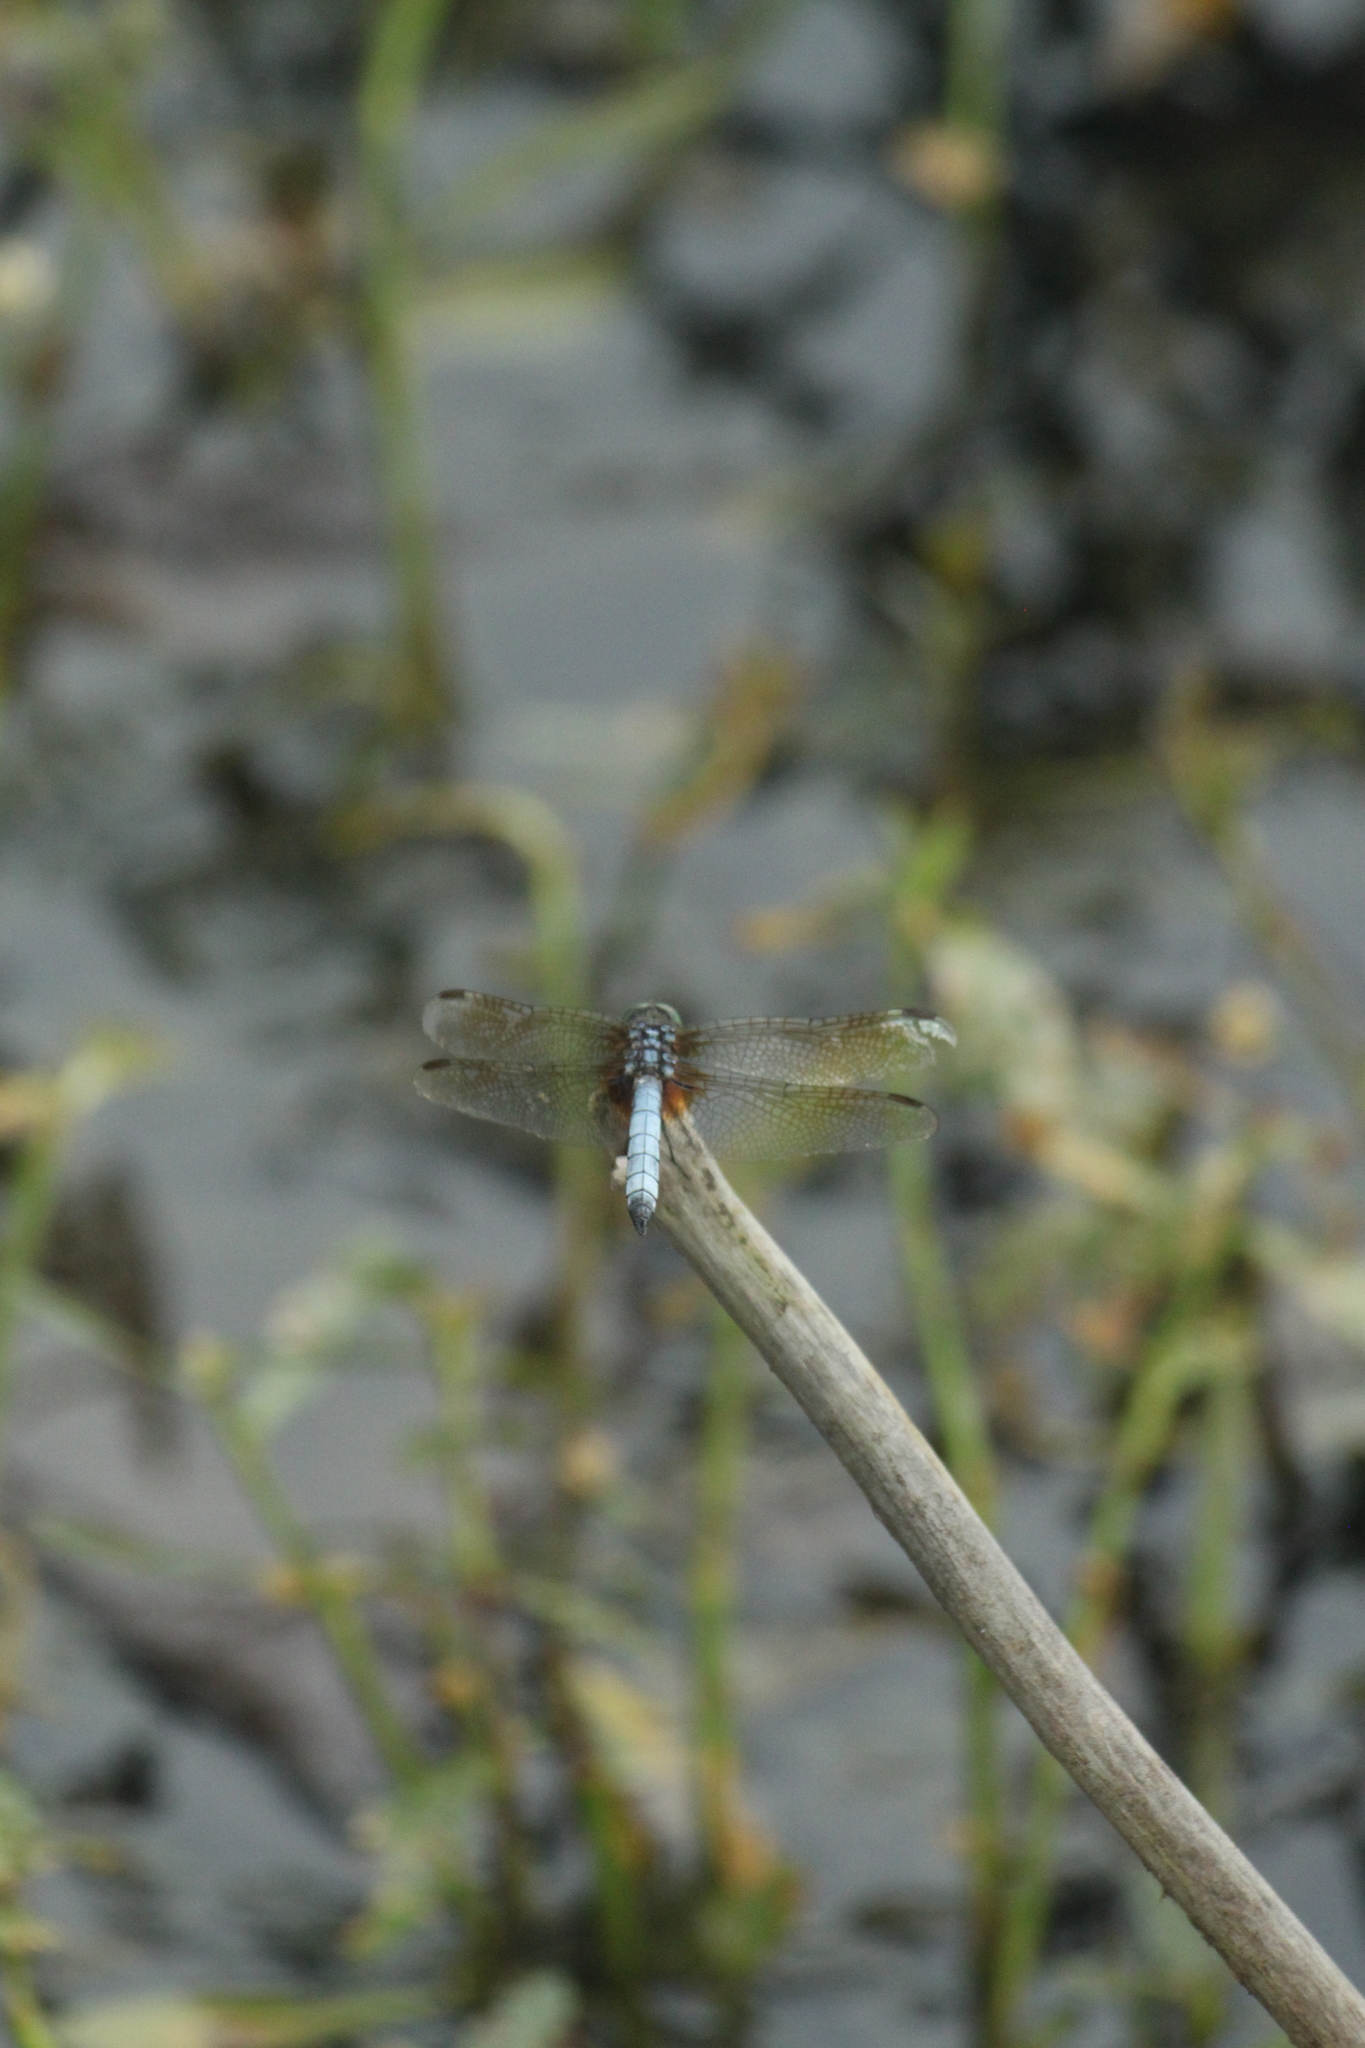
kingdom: Animalia
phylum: Arthropoda
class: Insecta
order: Odonata
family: Libellulidae
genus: Pachydiplax
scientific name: Pachydiplax longipennis
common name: Blue dasher
